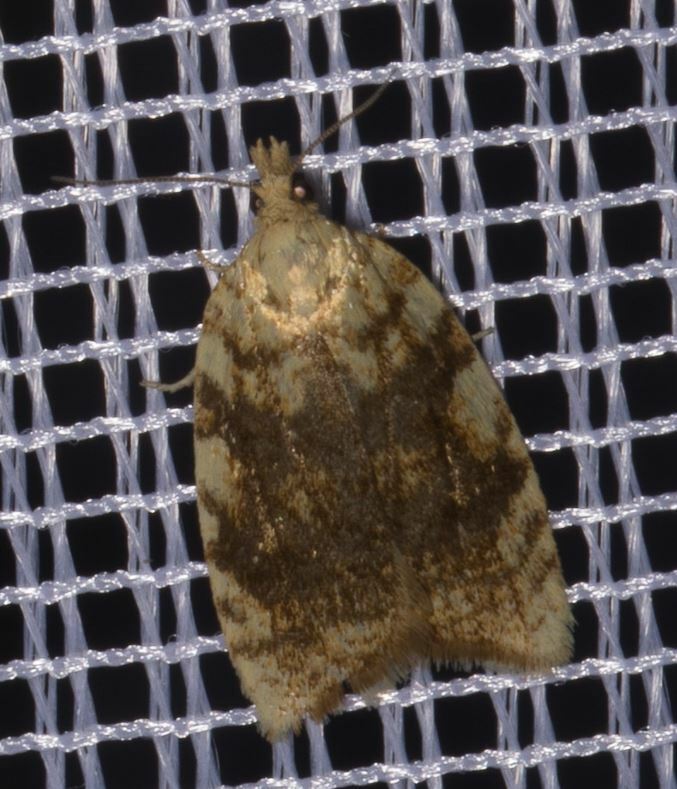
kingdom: Animalia
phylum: Arthropoda
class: Insecta
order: Lepidoptera
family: Tortricidae
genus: Aleimma
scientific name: Aleimma loeflingiana
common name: Yellow oak button
